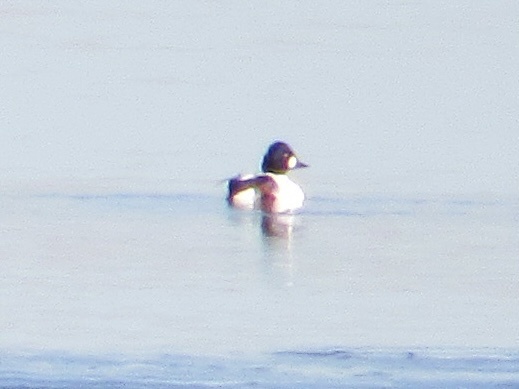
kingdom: Animalia
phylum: Chordata
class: Aves
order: Anseriformes
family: Anatidae
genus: Bucephala
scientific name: Bucephala clangula
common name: Common goldeneye
